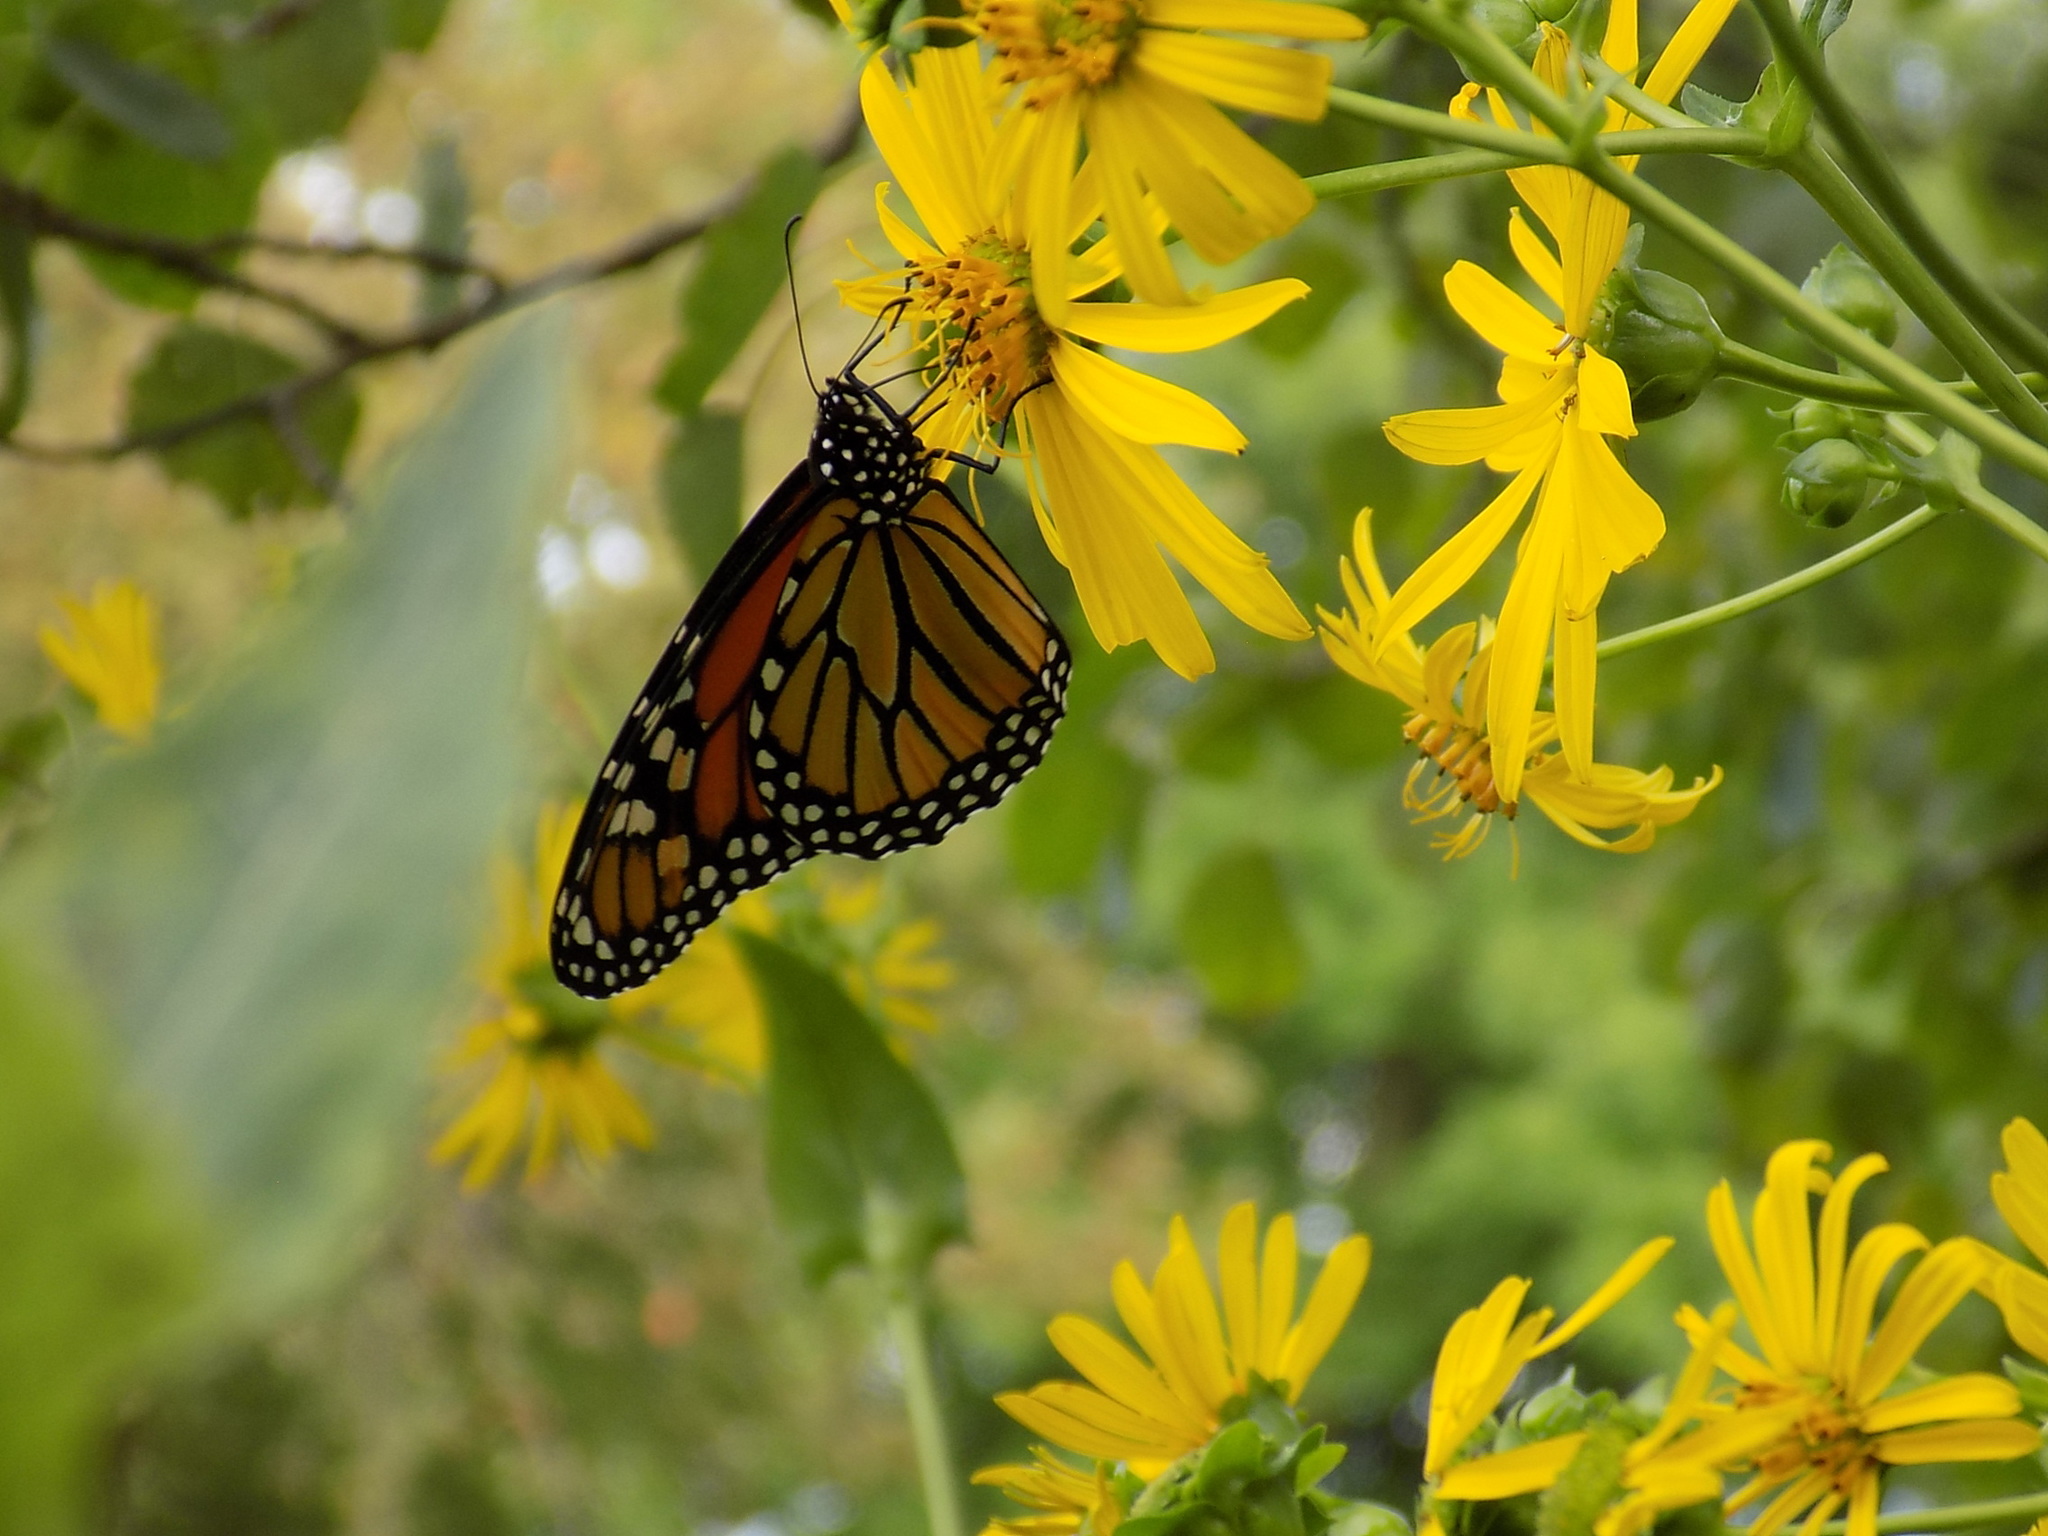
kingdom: Animalia
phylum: Arthropoda
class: Insecta
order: Lepidoptera
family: Nymphalidae
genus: Danaus
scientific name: Danaus plexippus
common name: Monarch
